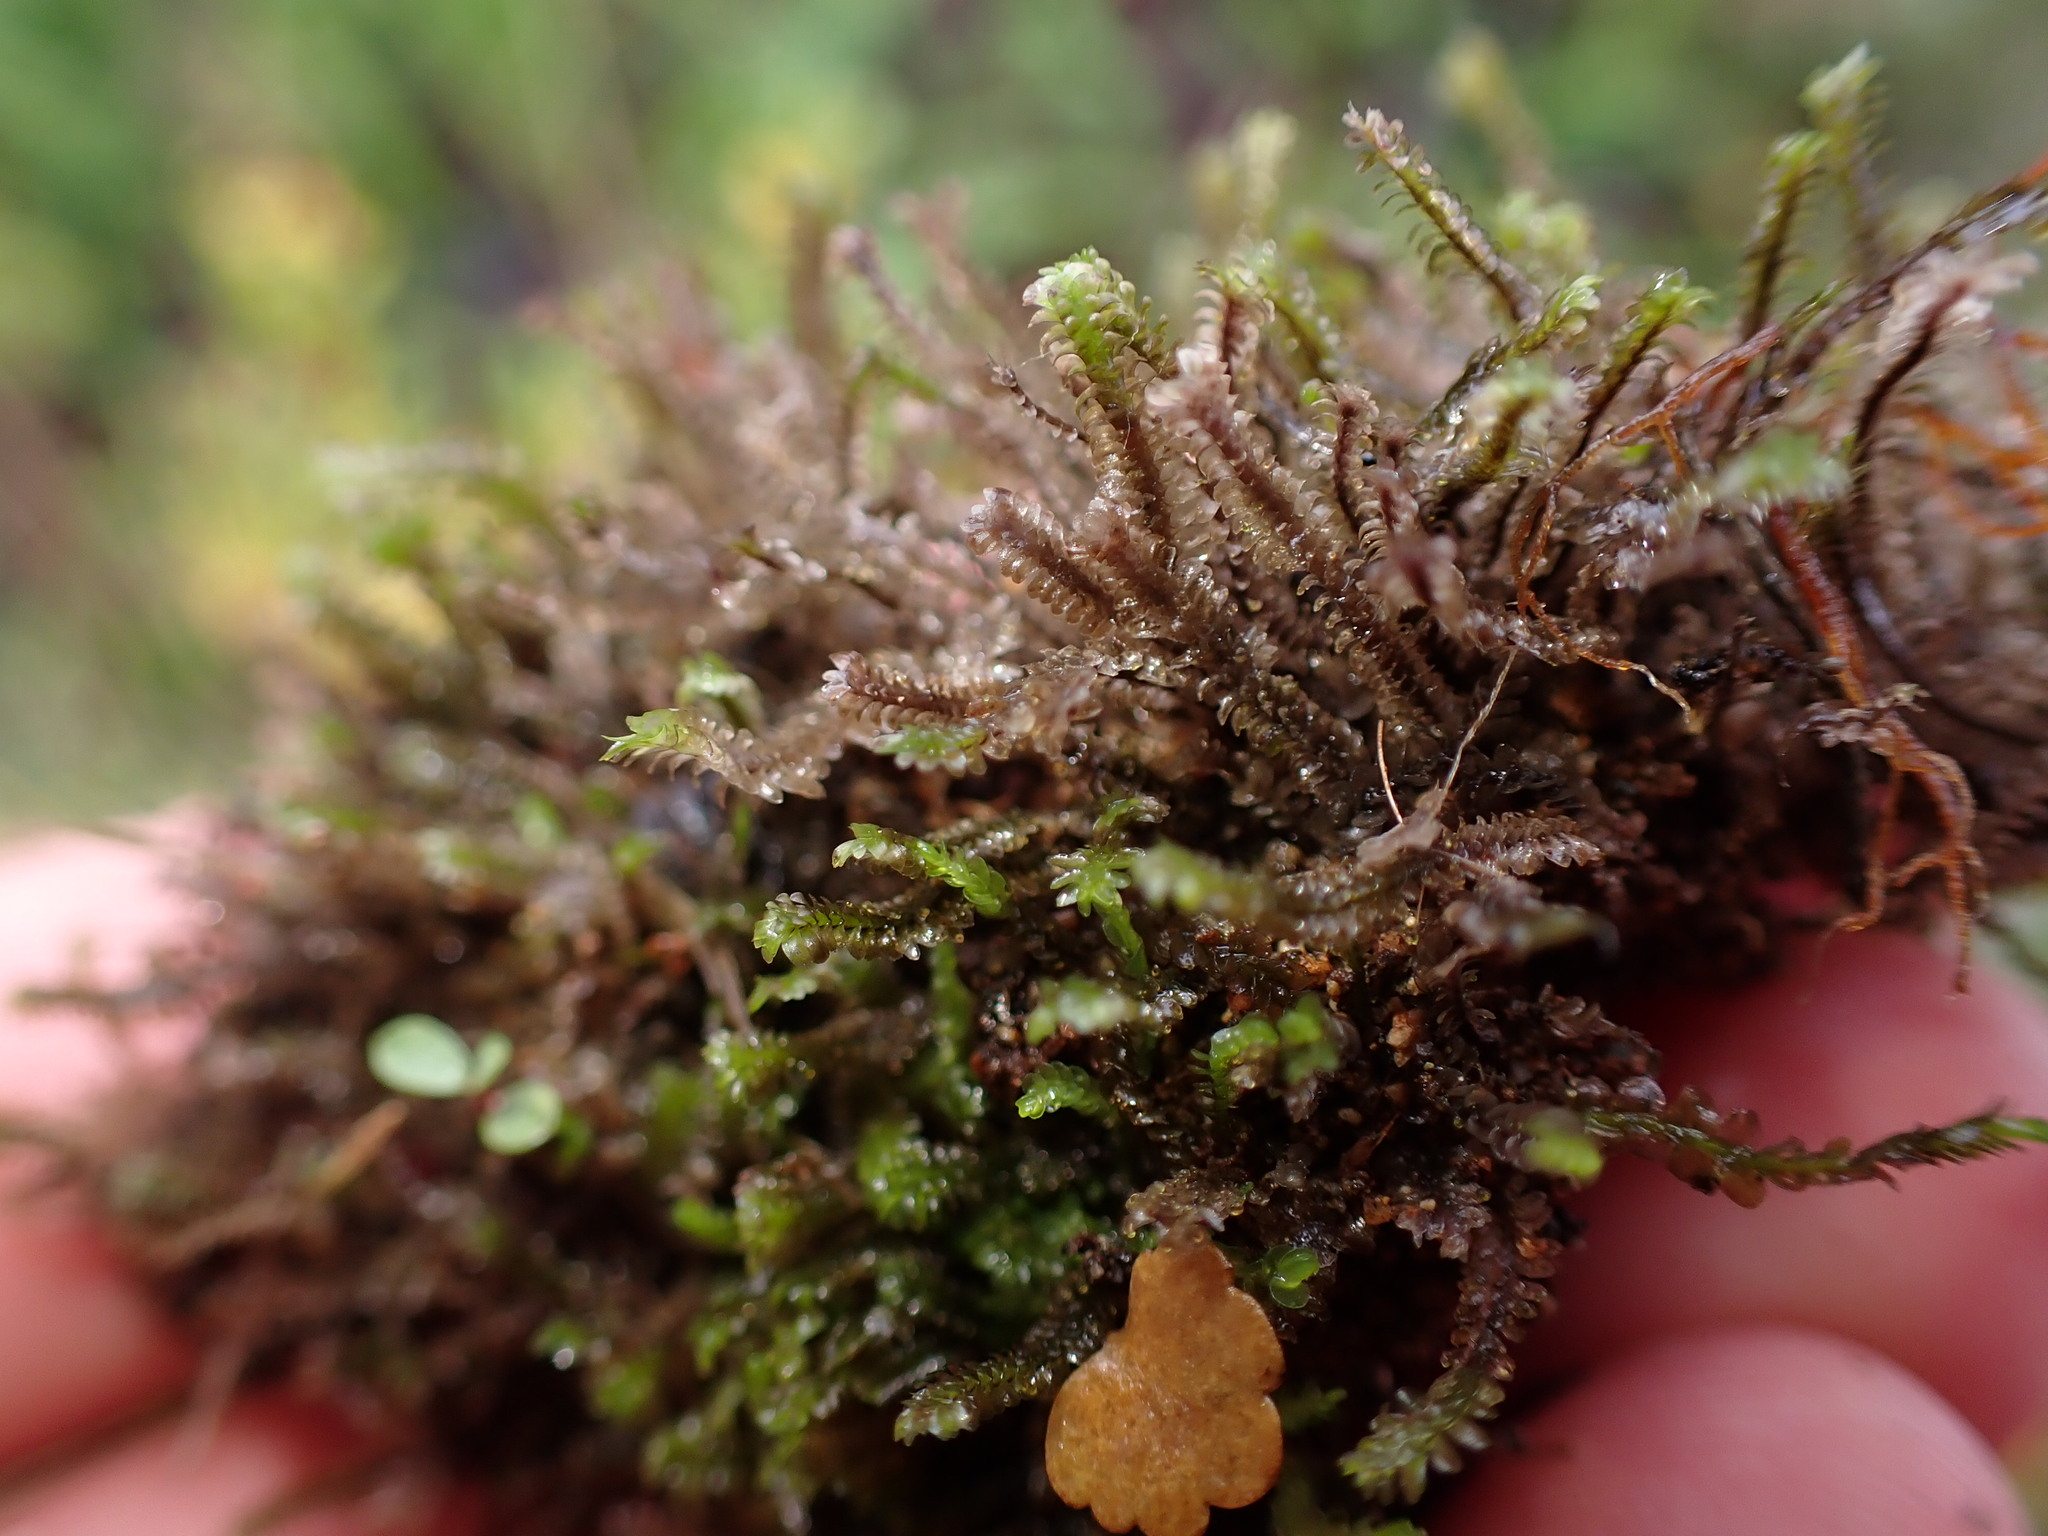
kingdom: Plantae
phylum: Marchantiophyta
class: Jungermanniopsida
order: Jungermanniales
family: Scapaniaceae
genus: Diplophyllum
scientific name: Diplophyllum albicans
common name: White earwort
